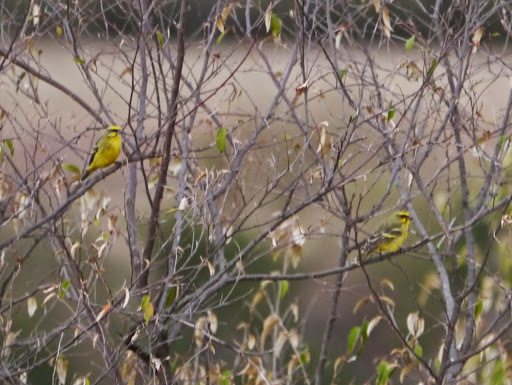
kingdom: Animalia
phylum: Chordata
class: Aves
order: Passeriformes
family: Fringillidae
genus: Crithagra
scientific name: Crithagra mozambica
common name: Yellow-fronted canary
